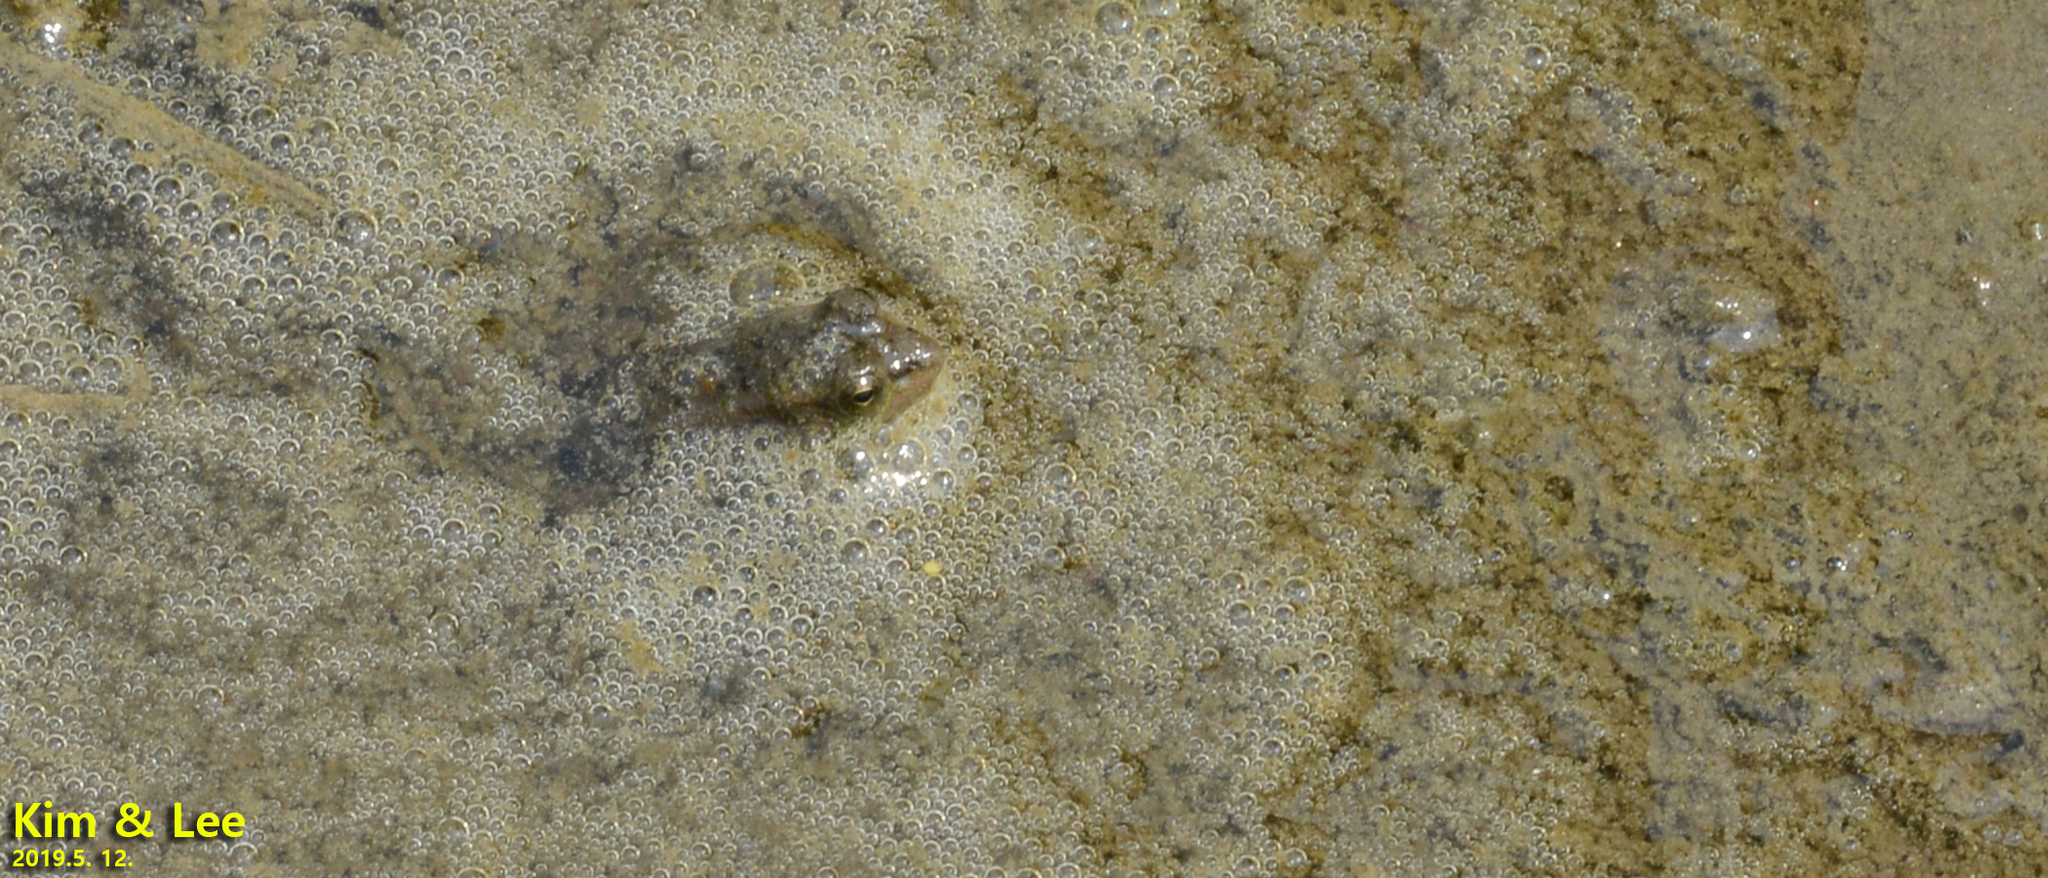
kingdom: Animalia
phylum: Chordata
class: Amphibia
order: Anura
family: Ranidae
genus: Pelophylax
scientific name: Pelophylax chosenicus
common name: Gold-spotted pond frog
